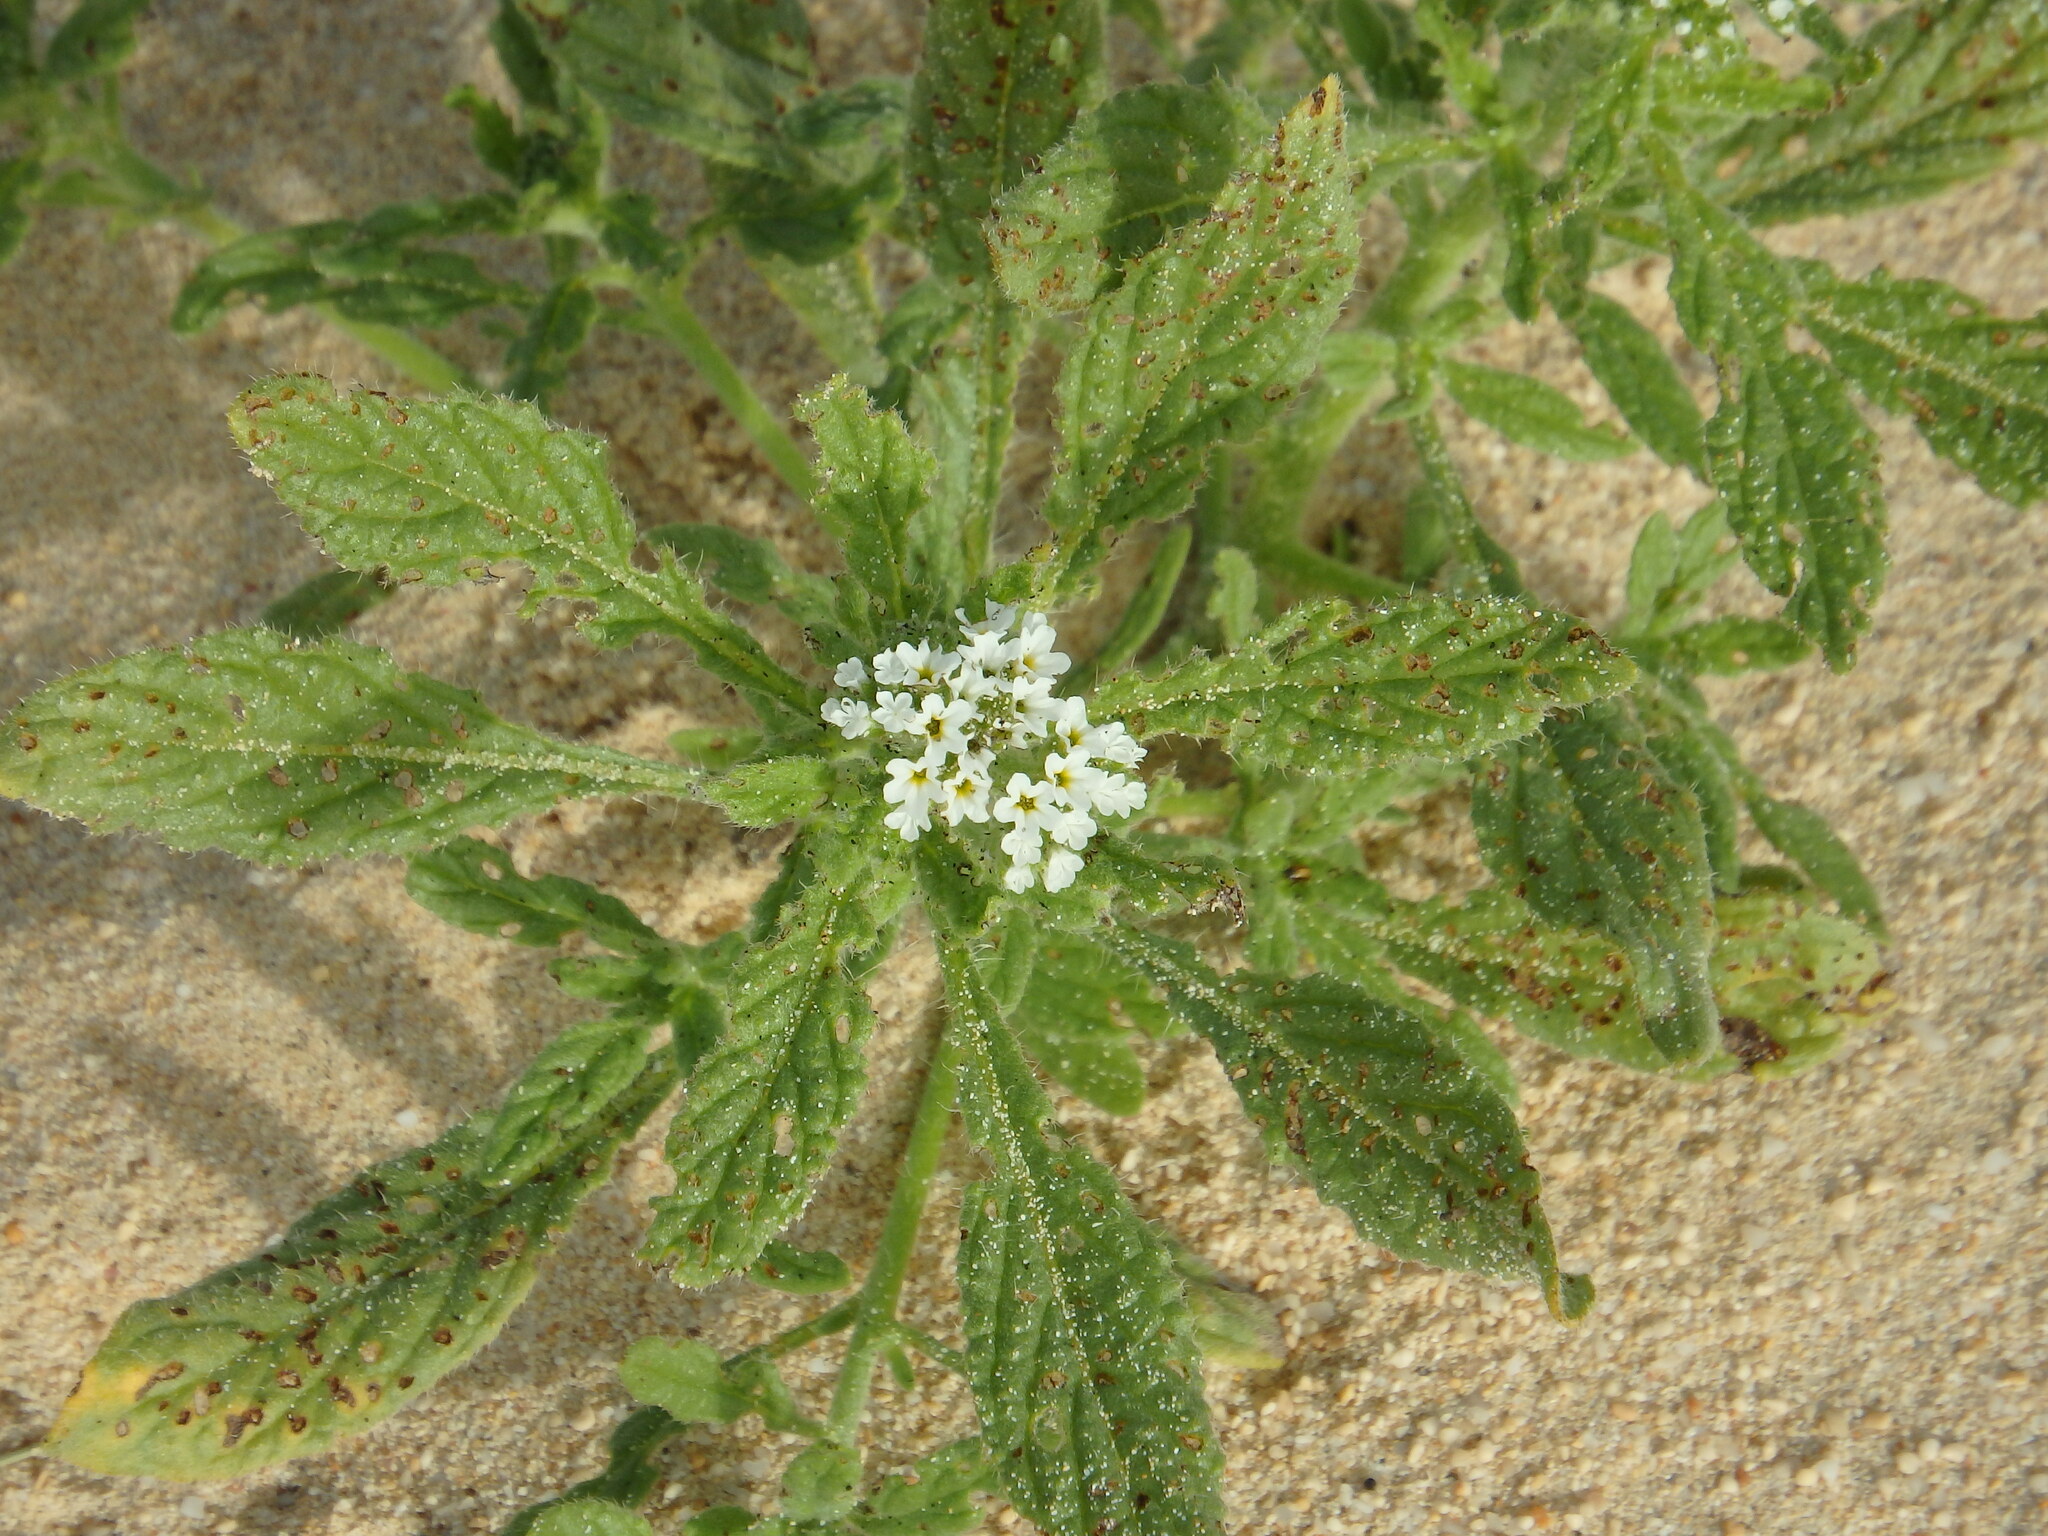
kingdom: Plantae
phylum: Tracheophyta
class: Magnoliopsida
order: Boraginales
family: Heliotropiaceae
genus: Heliotropium
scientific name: Heliotropium ramosissimum
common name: Wavy heliotrope
